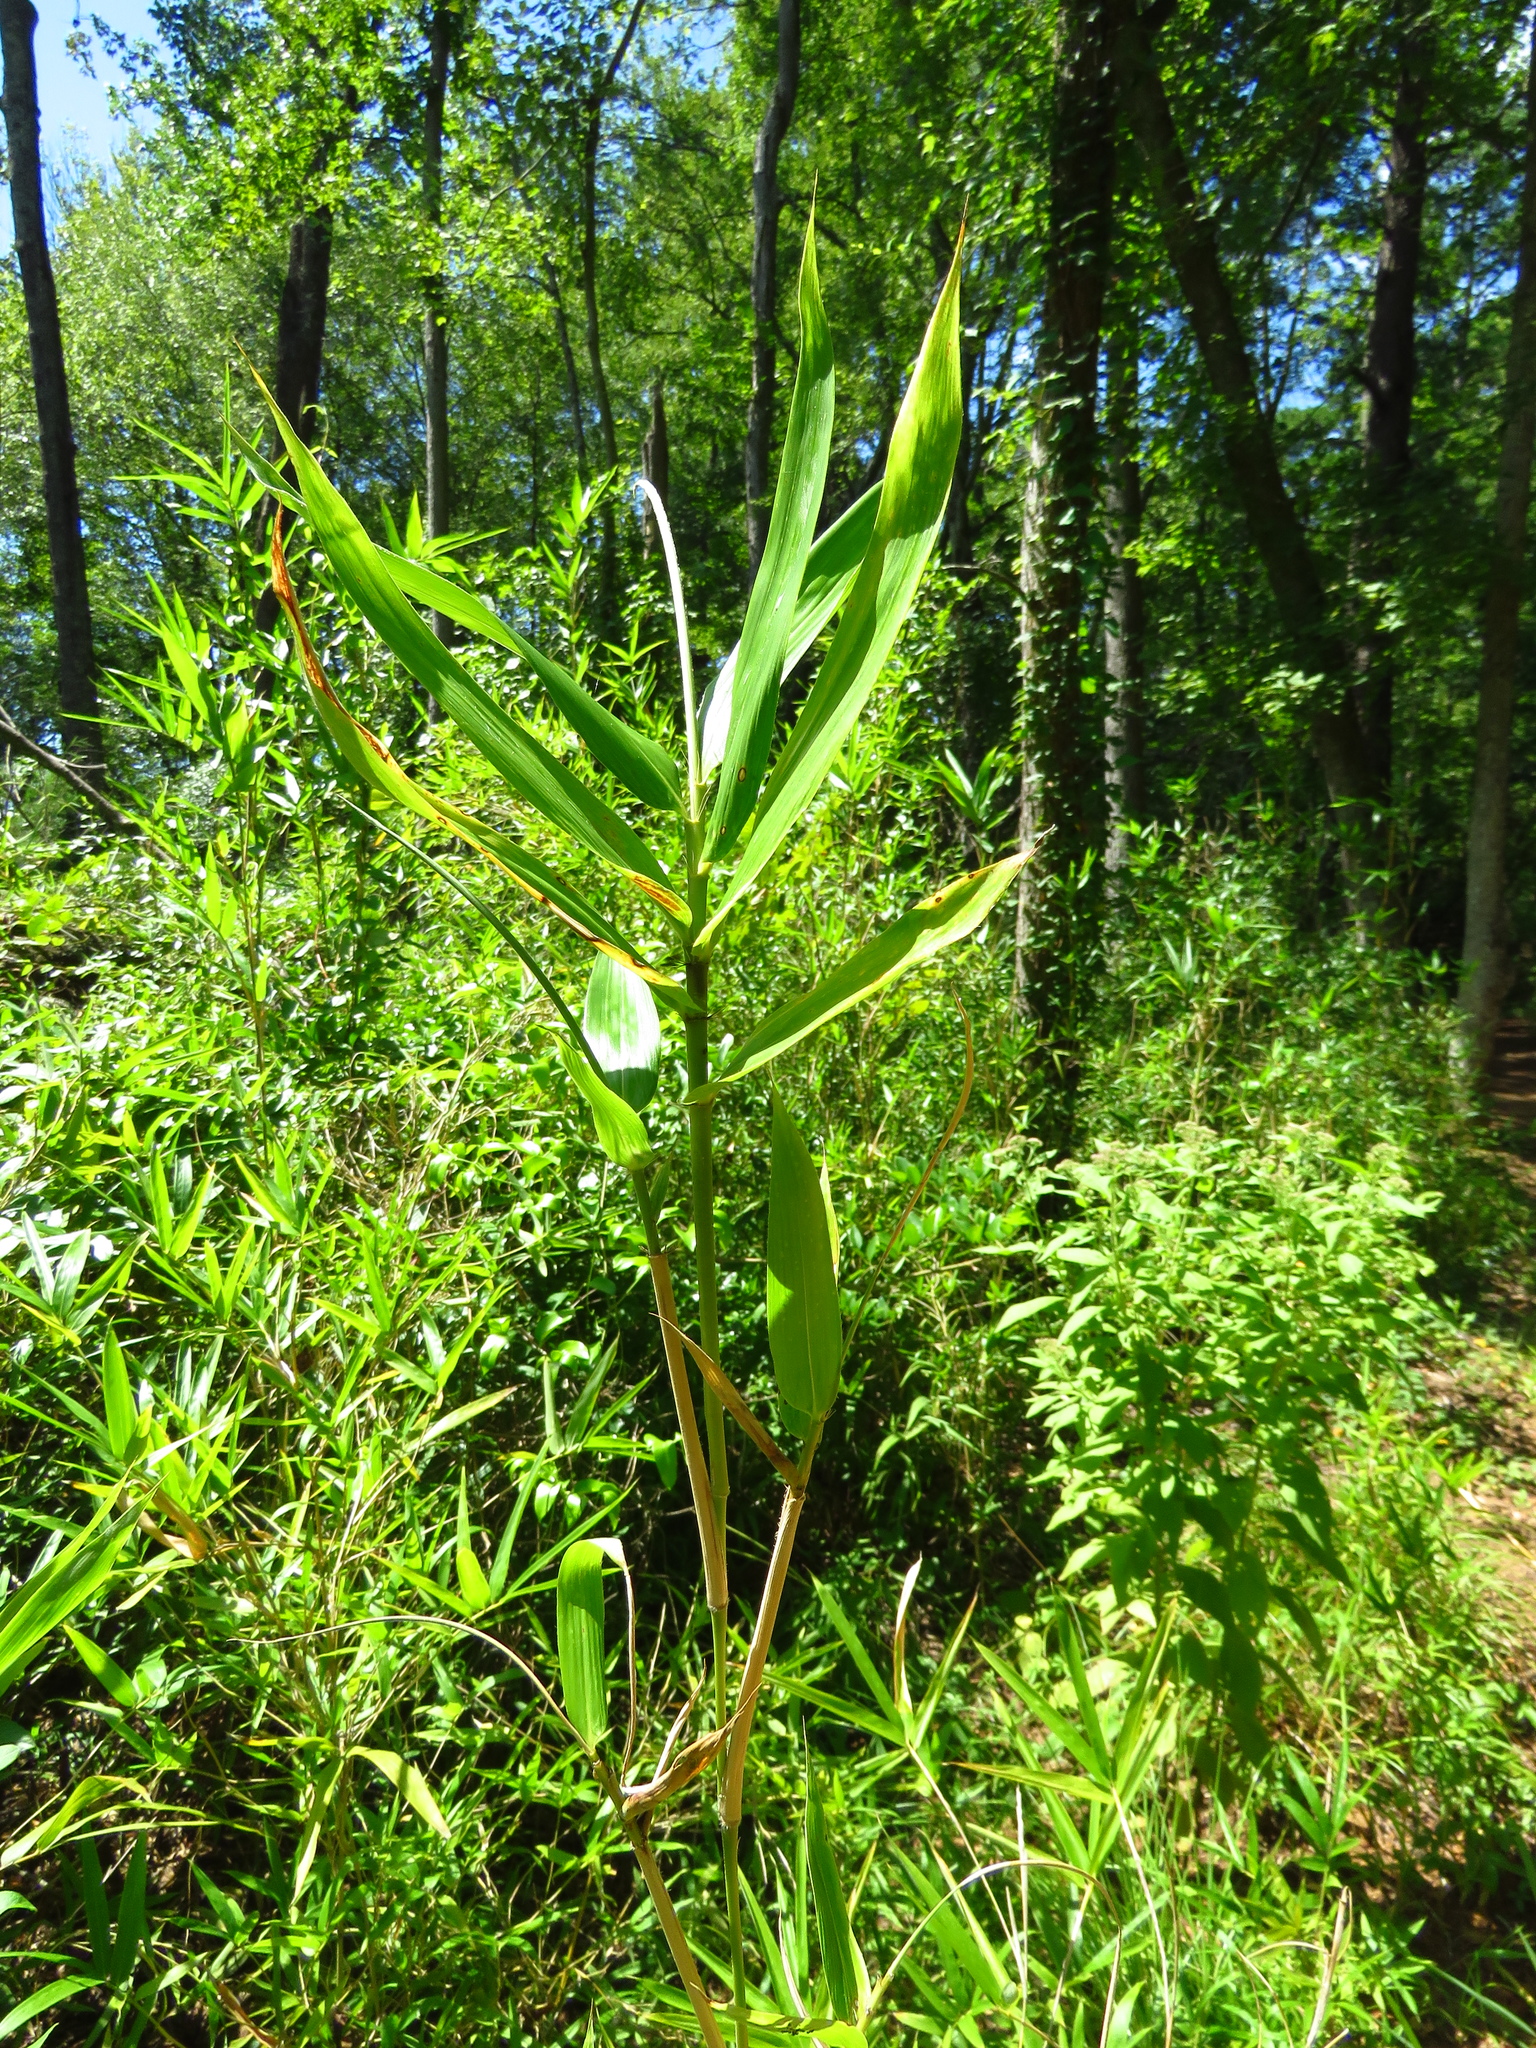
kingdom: Plantae
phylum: Tracheophyta
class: Liliopsida
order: Poales
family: Poaceae
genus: Arundinaria
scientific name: Arundinaria gigantea
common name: Giant cane
